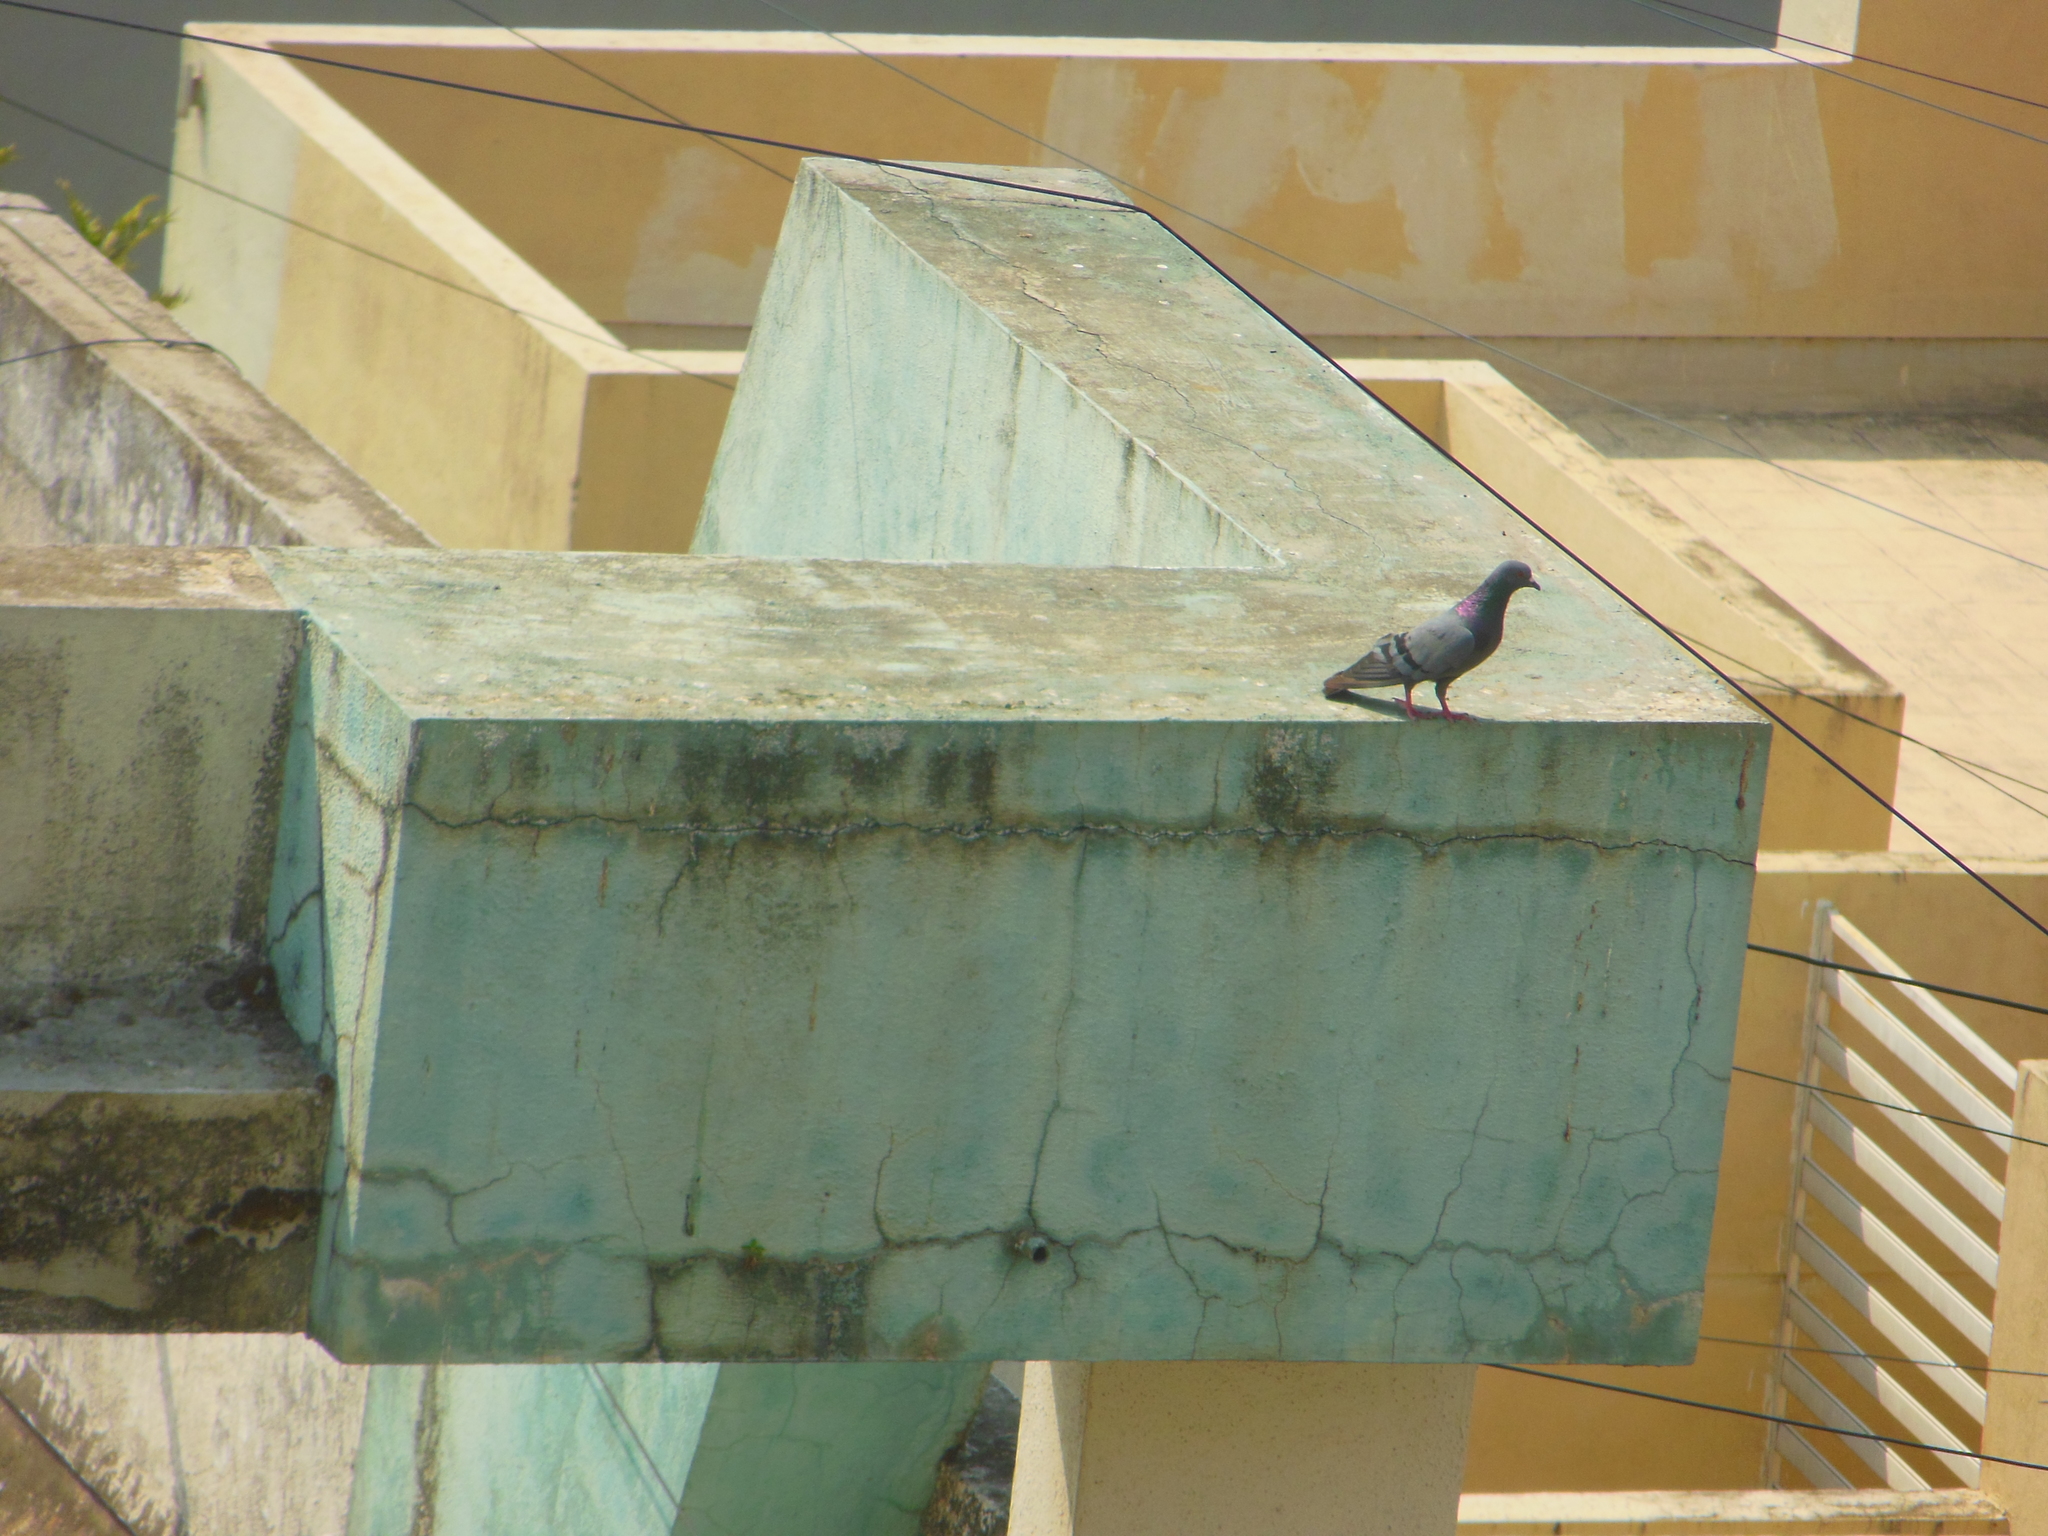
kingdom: Animalia
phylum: Chordata
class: Aves
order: Columbiformes
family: Columbidae
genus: Columba
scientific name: Columba livia
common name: Rock pigeon
